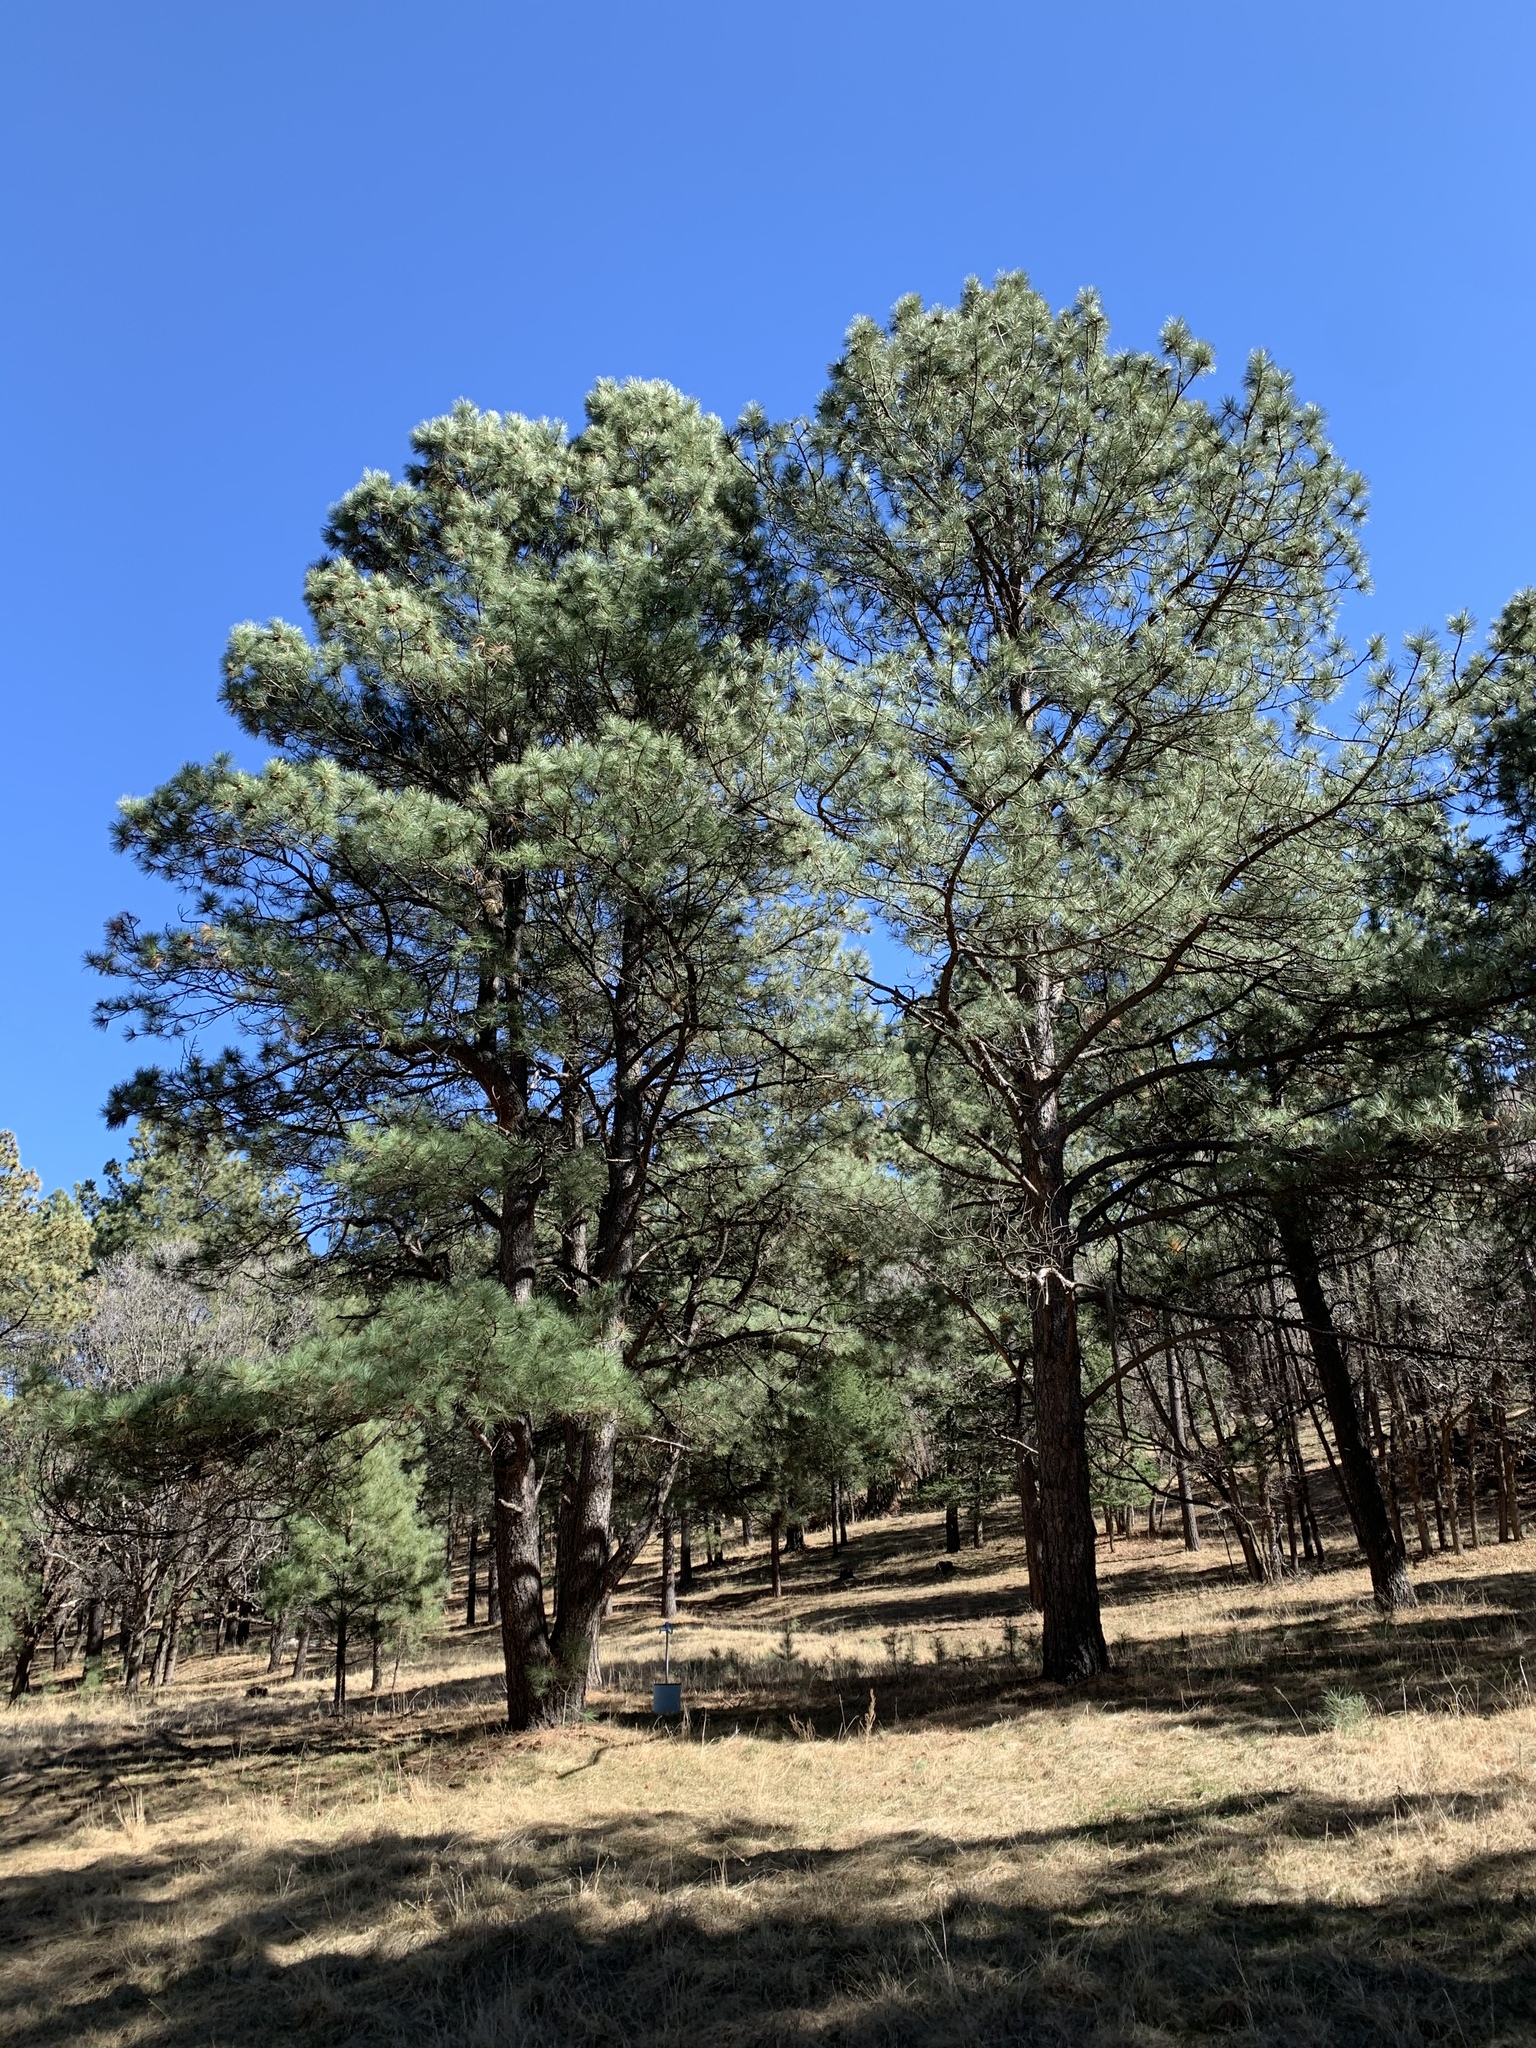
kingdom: Plantae
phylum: Tracheophyta
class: Pinopsida
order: Pinales
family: Pinaceae
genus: Pinus
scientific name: Pinus ponderosa
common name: Western yellow-pine
